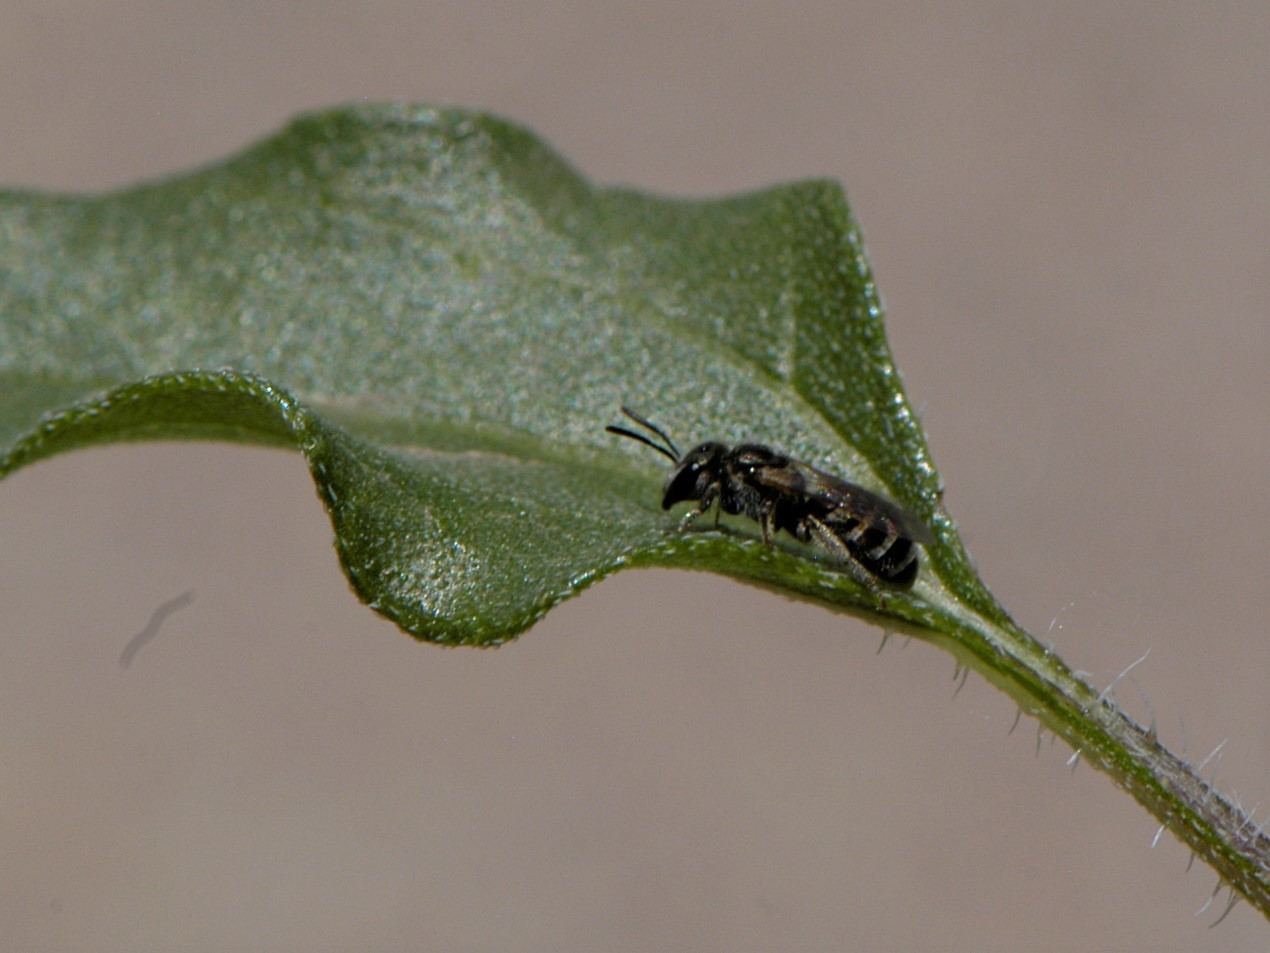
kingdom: Animalia
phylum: Arthropoda
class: Insecta
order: Hymenoptera
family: Halictidae
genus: Halictus
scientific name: Halictus tripartitus
